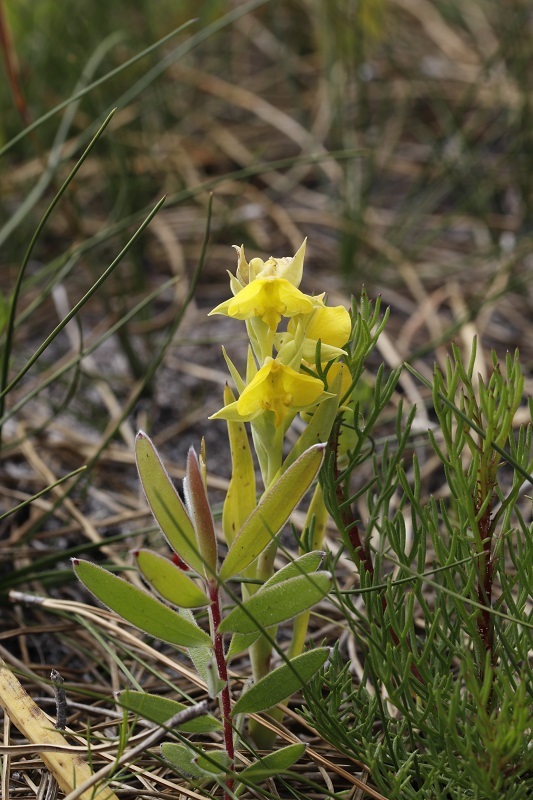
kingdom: Plantae
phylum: Tracheophyta
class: Liliopsida
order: Asparagales
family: Orchidaceae
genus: Pterygodium
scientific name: Pterygodium acutifolium
